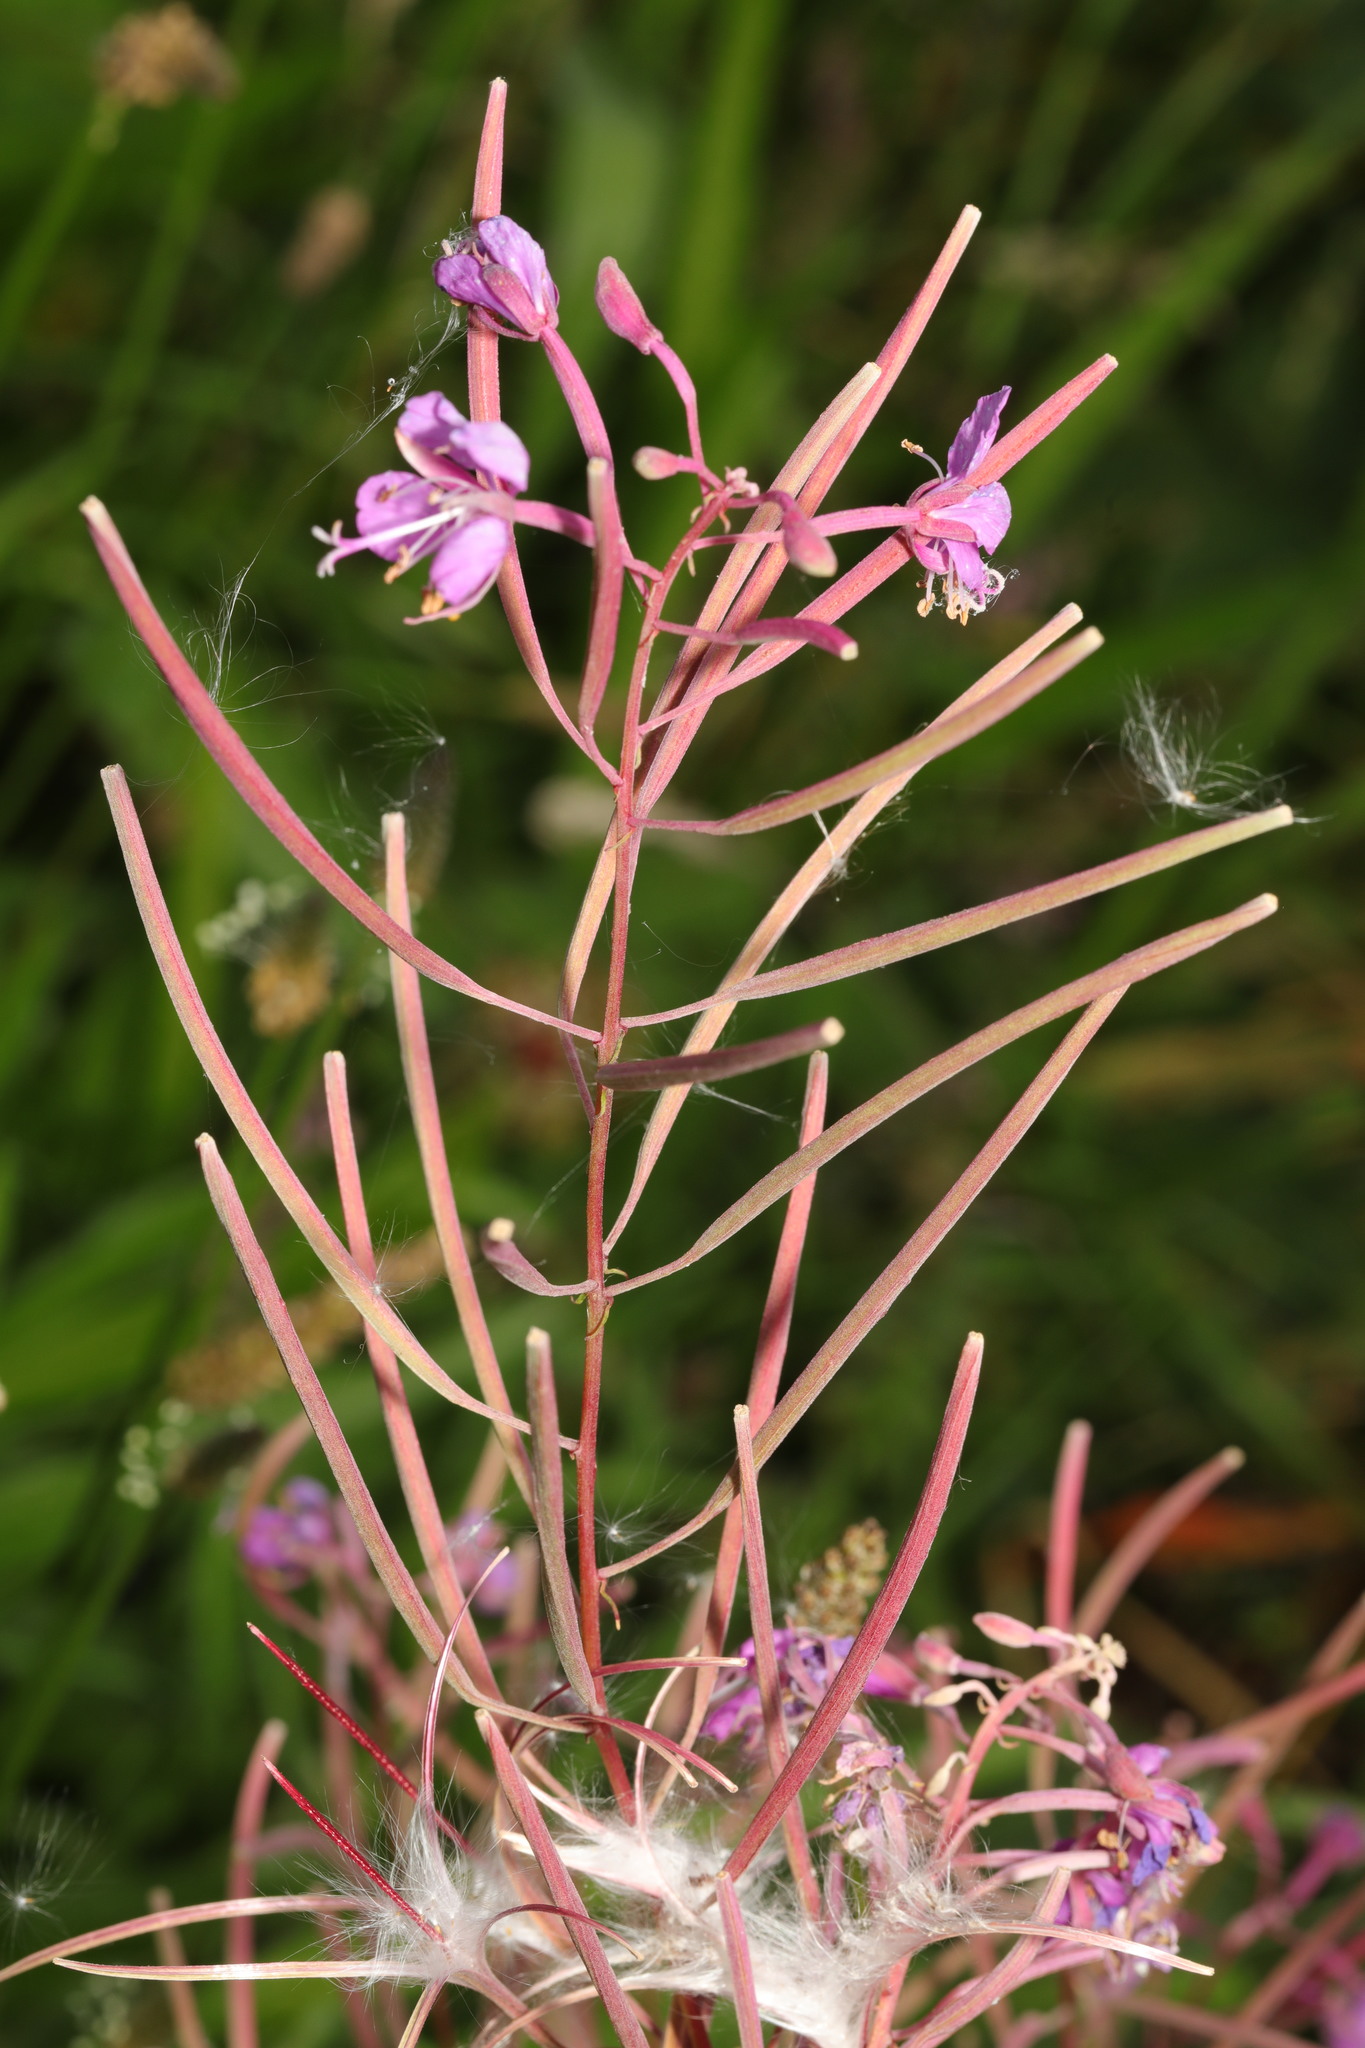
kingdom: Plantae
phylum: Tracheophyta
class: Magnoliopsida
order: Myrtales
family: Onagraceae
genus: Chamaenerion
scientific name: Chamaenerion angustifolium
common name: Fireweed
